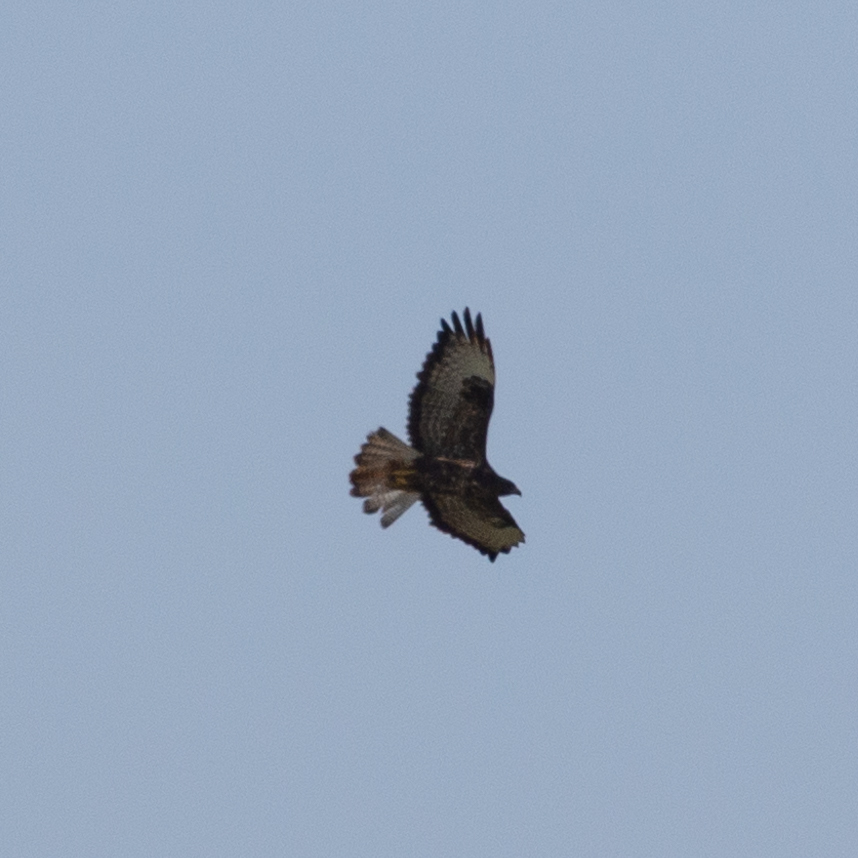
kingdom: Animalia
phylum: Chordata
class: Aves
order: Accipitriformes
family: Accipitridae
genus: Buteo
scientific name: Buteo buteo
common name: Common buzzard
